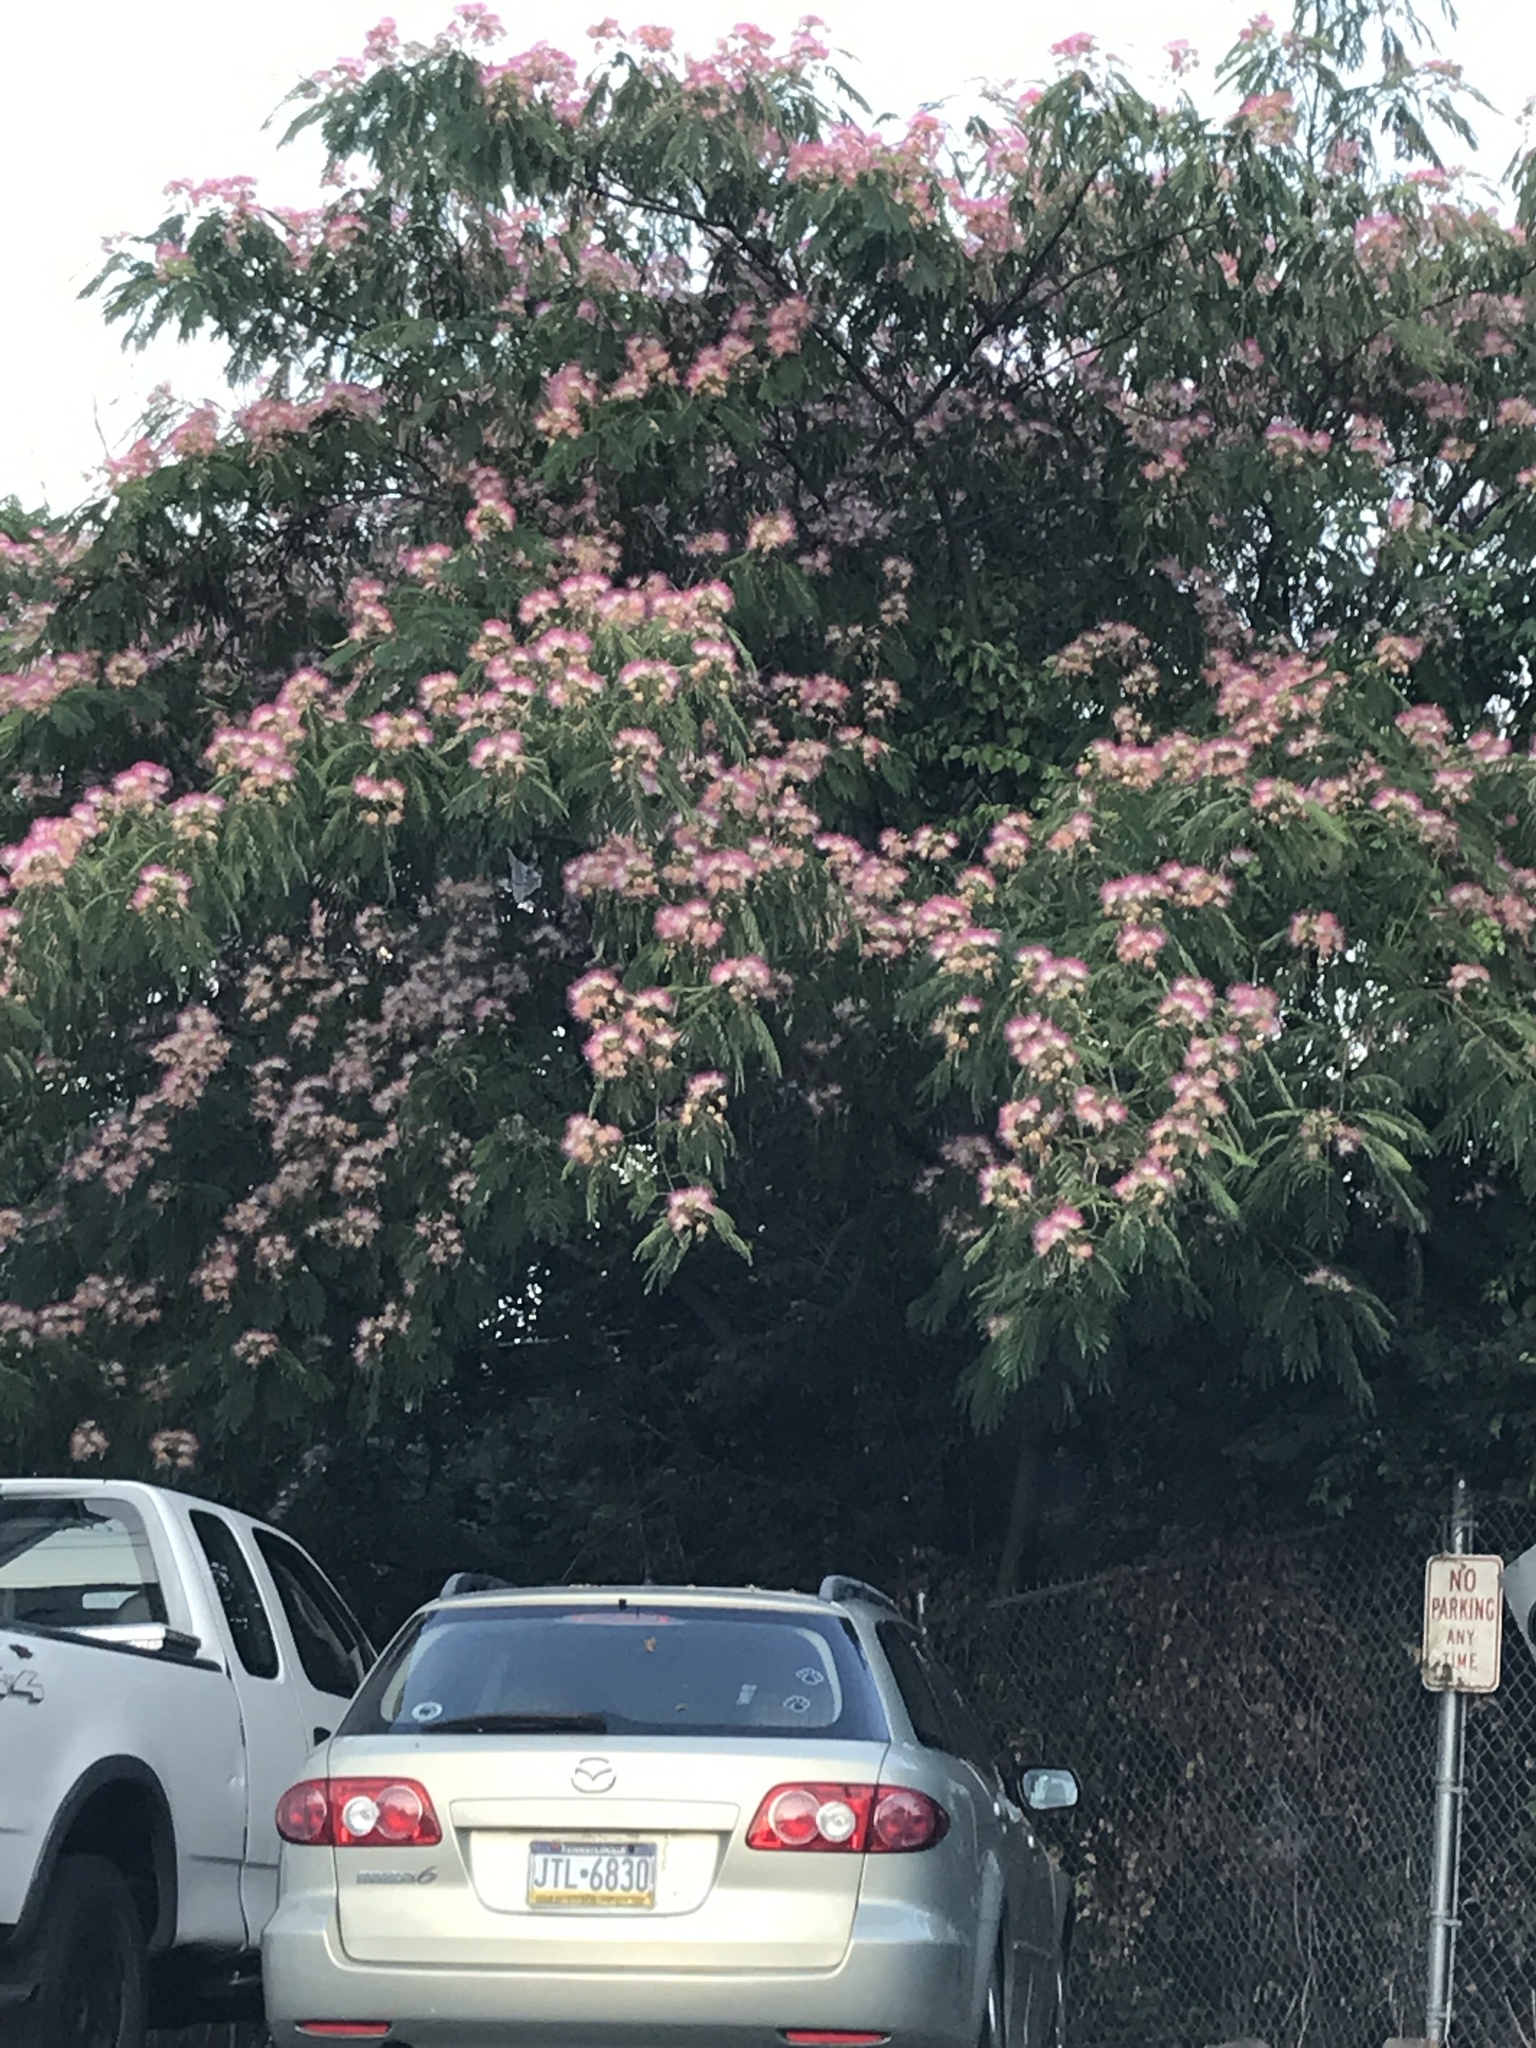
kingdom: Plantae
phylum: Tracheophyta
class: Magnoliopsida
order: Fabales
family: Fabaceae
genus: Albizia
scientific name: Albizia julibrissin
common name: Silktree
